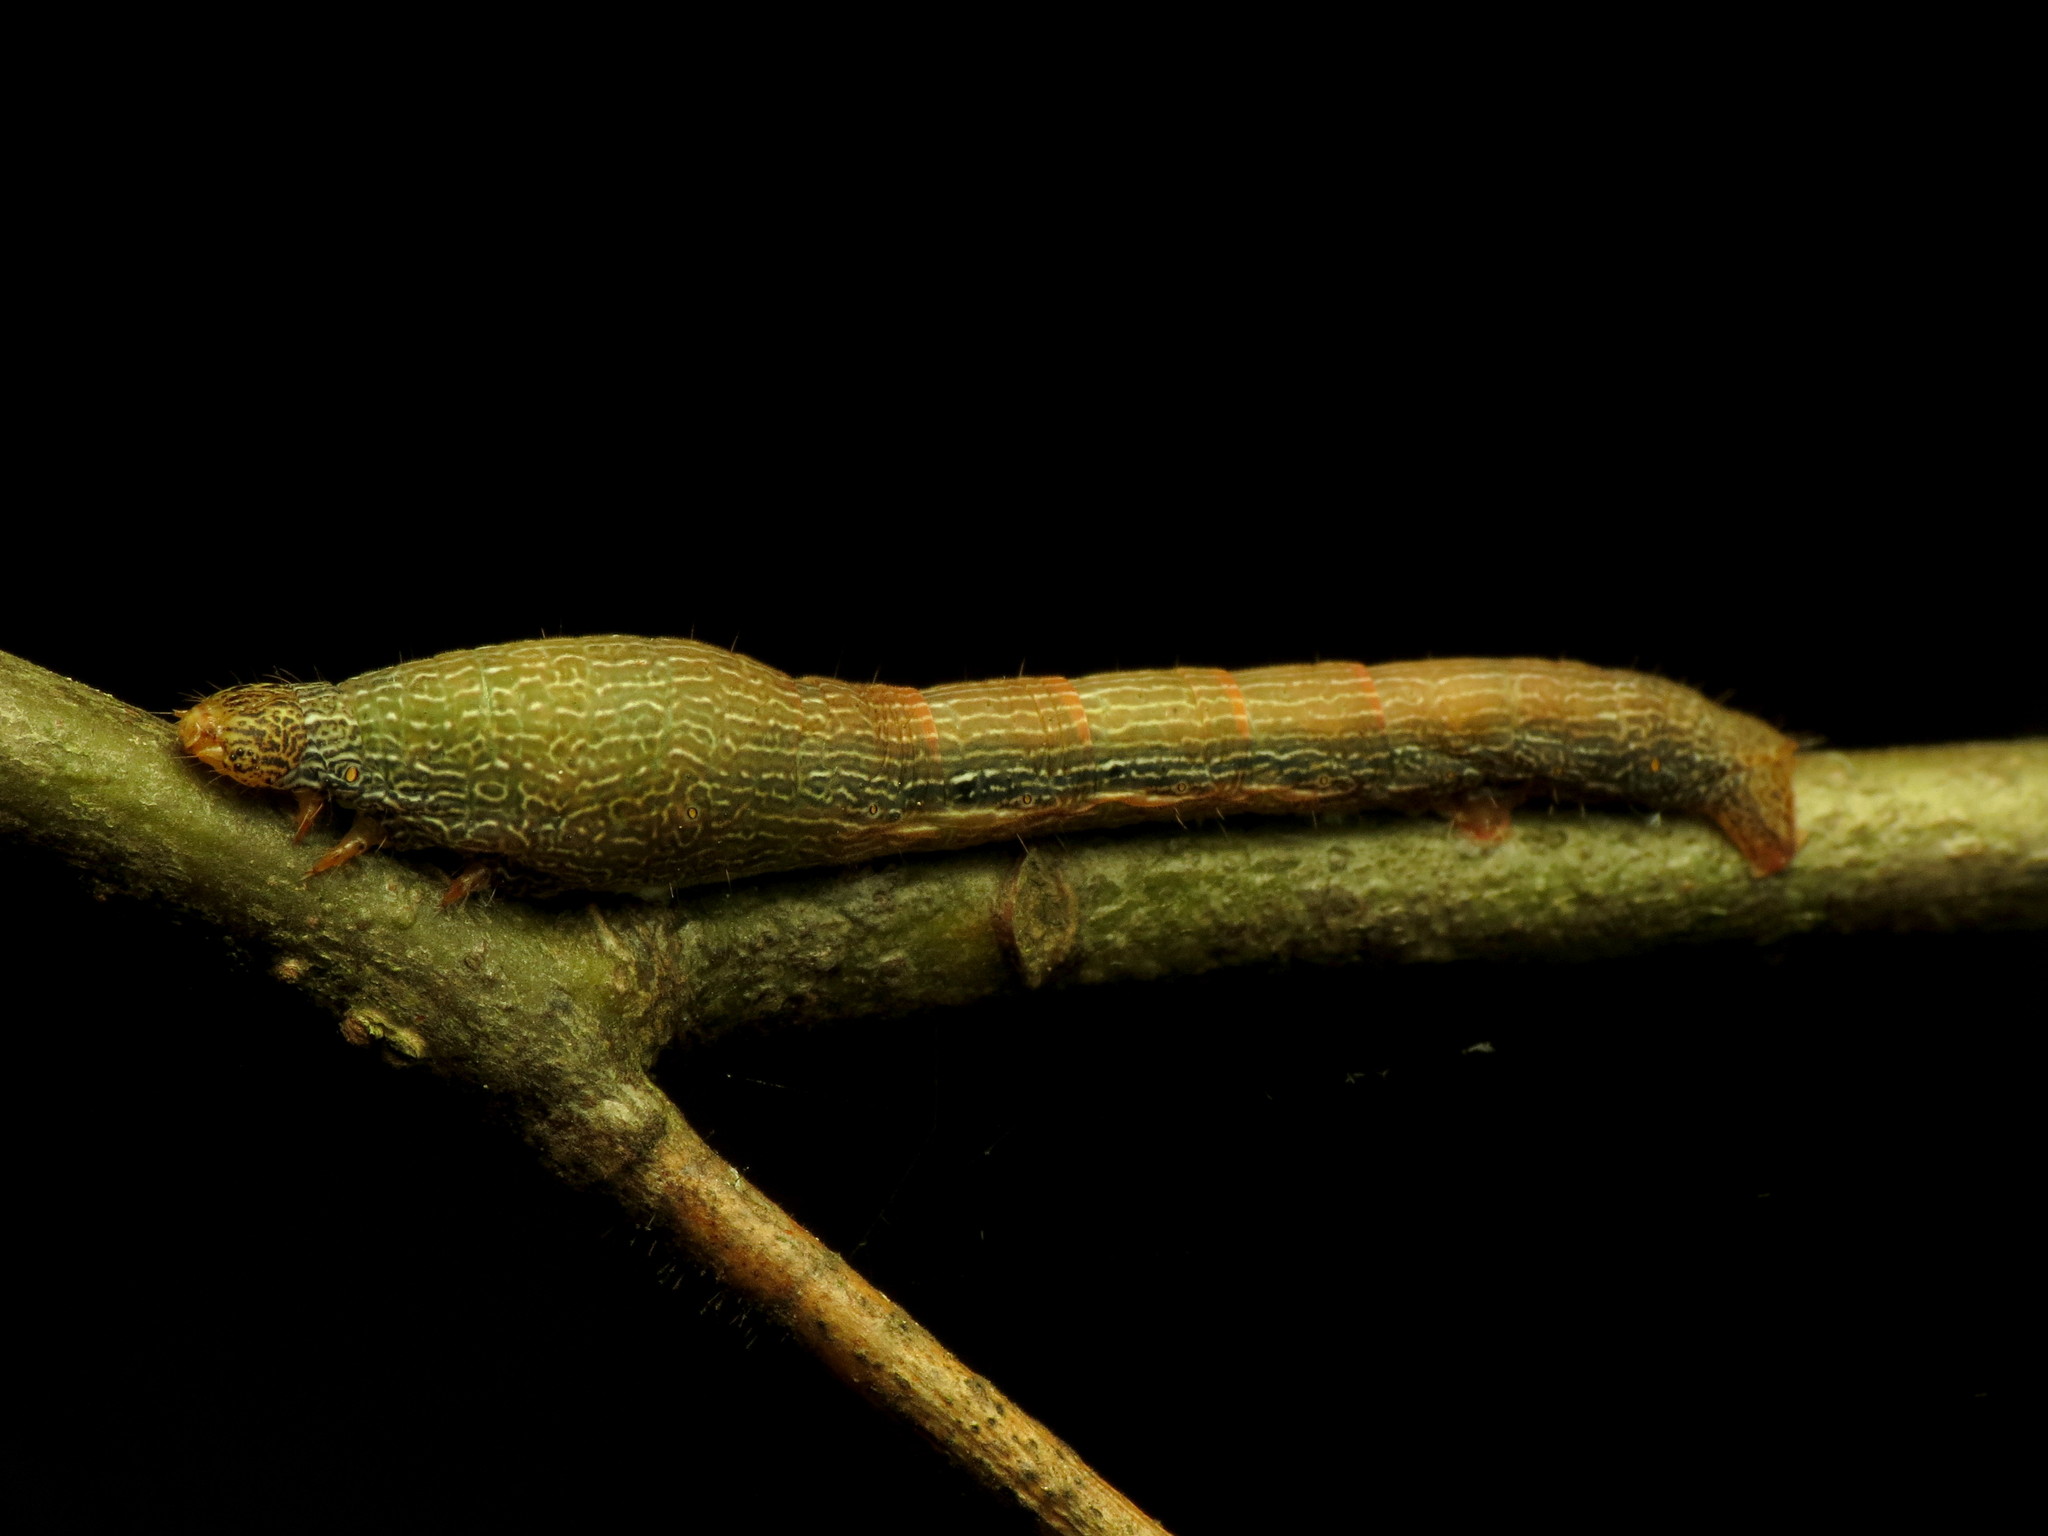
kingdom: Animalia
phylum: Arthropoda
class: Insecta
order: Lepidoptera
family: Geometridae
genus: Epimecis
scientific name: Epimecis hortaria
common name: Tulip-tree beauty
